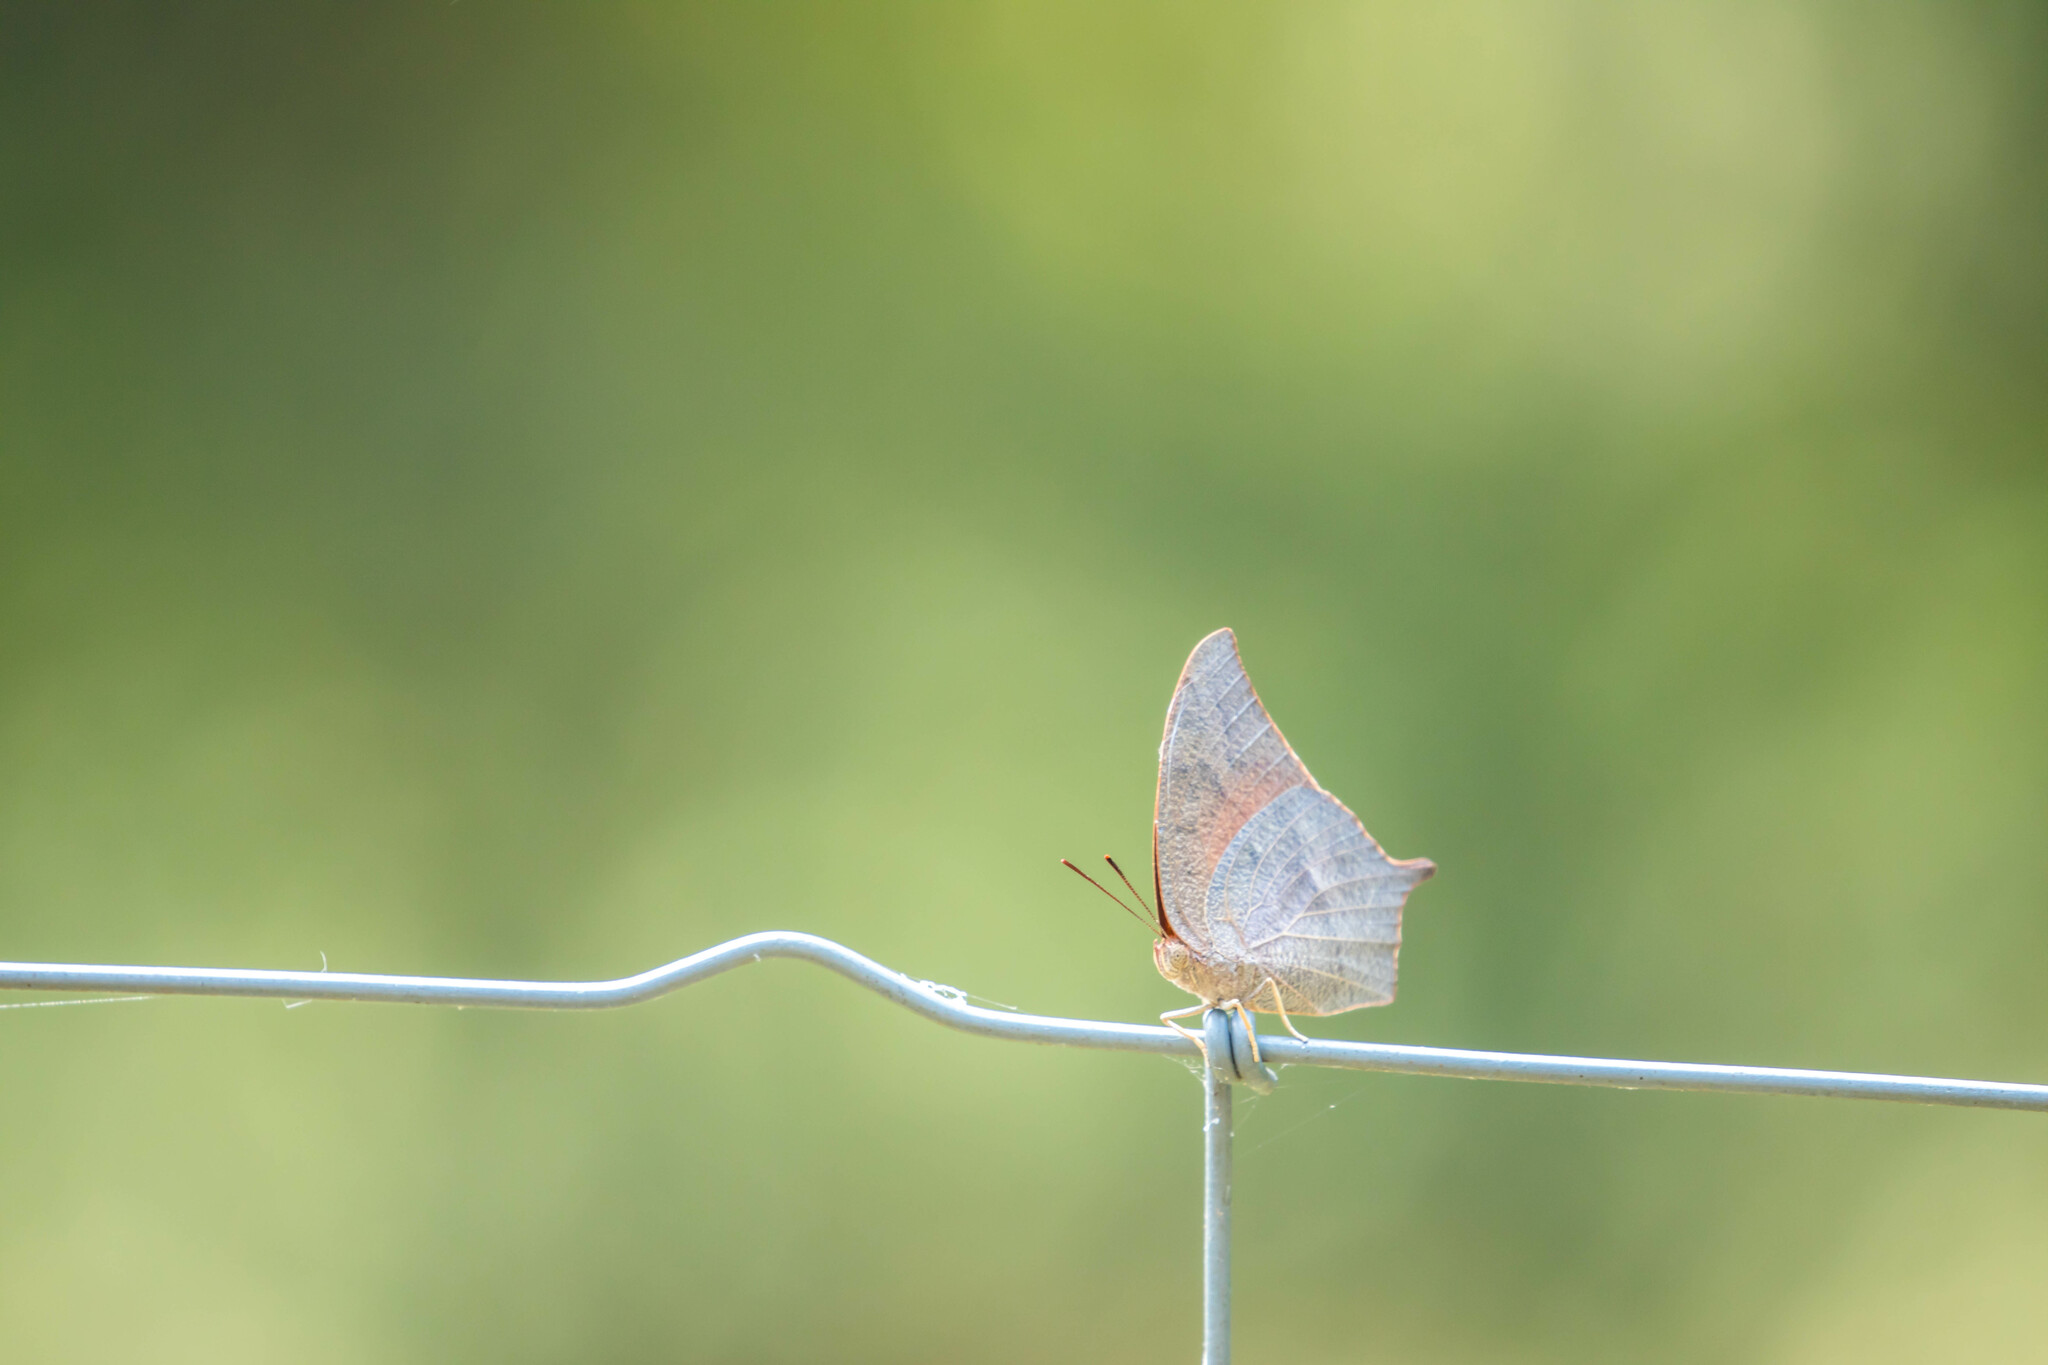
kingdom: Animalia
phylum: Arthropoda
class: Insecta
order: Lepidoptera
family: Nymphalidae
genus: Anaea
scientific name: Anaea andria
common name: Goatweed leafwing
